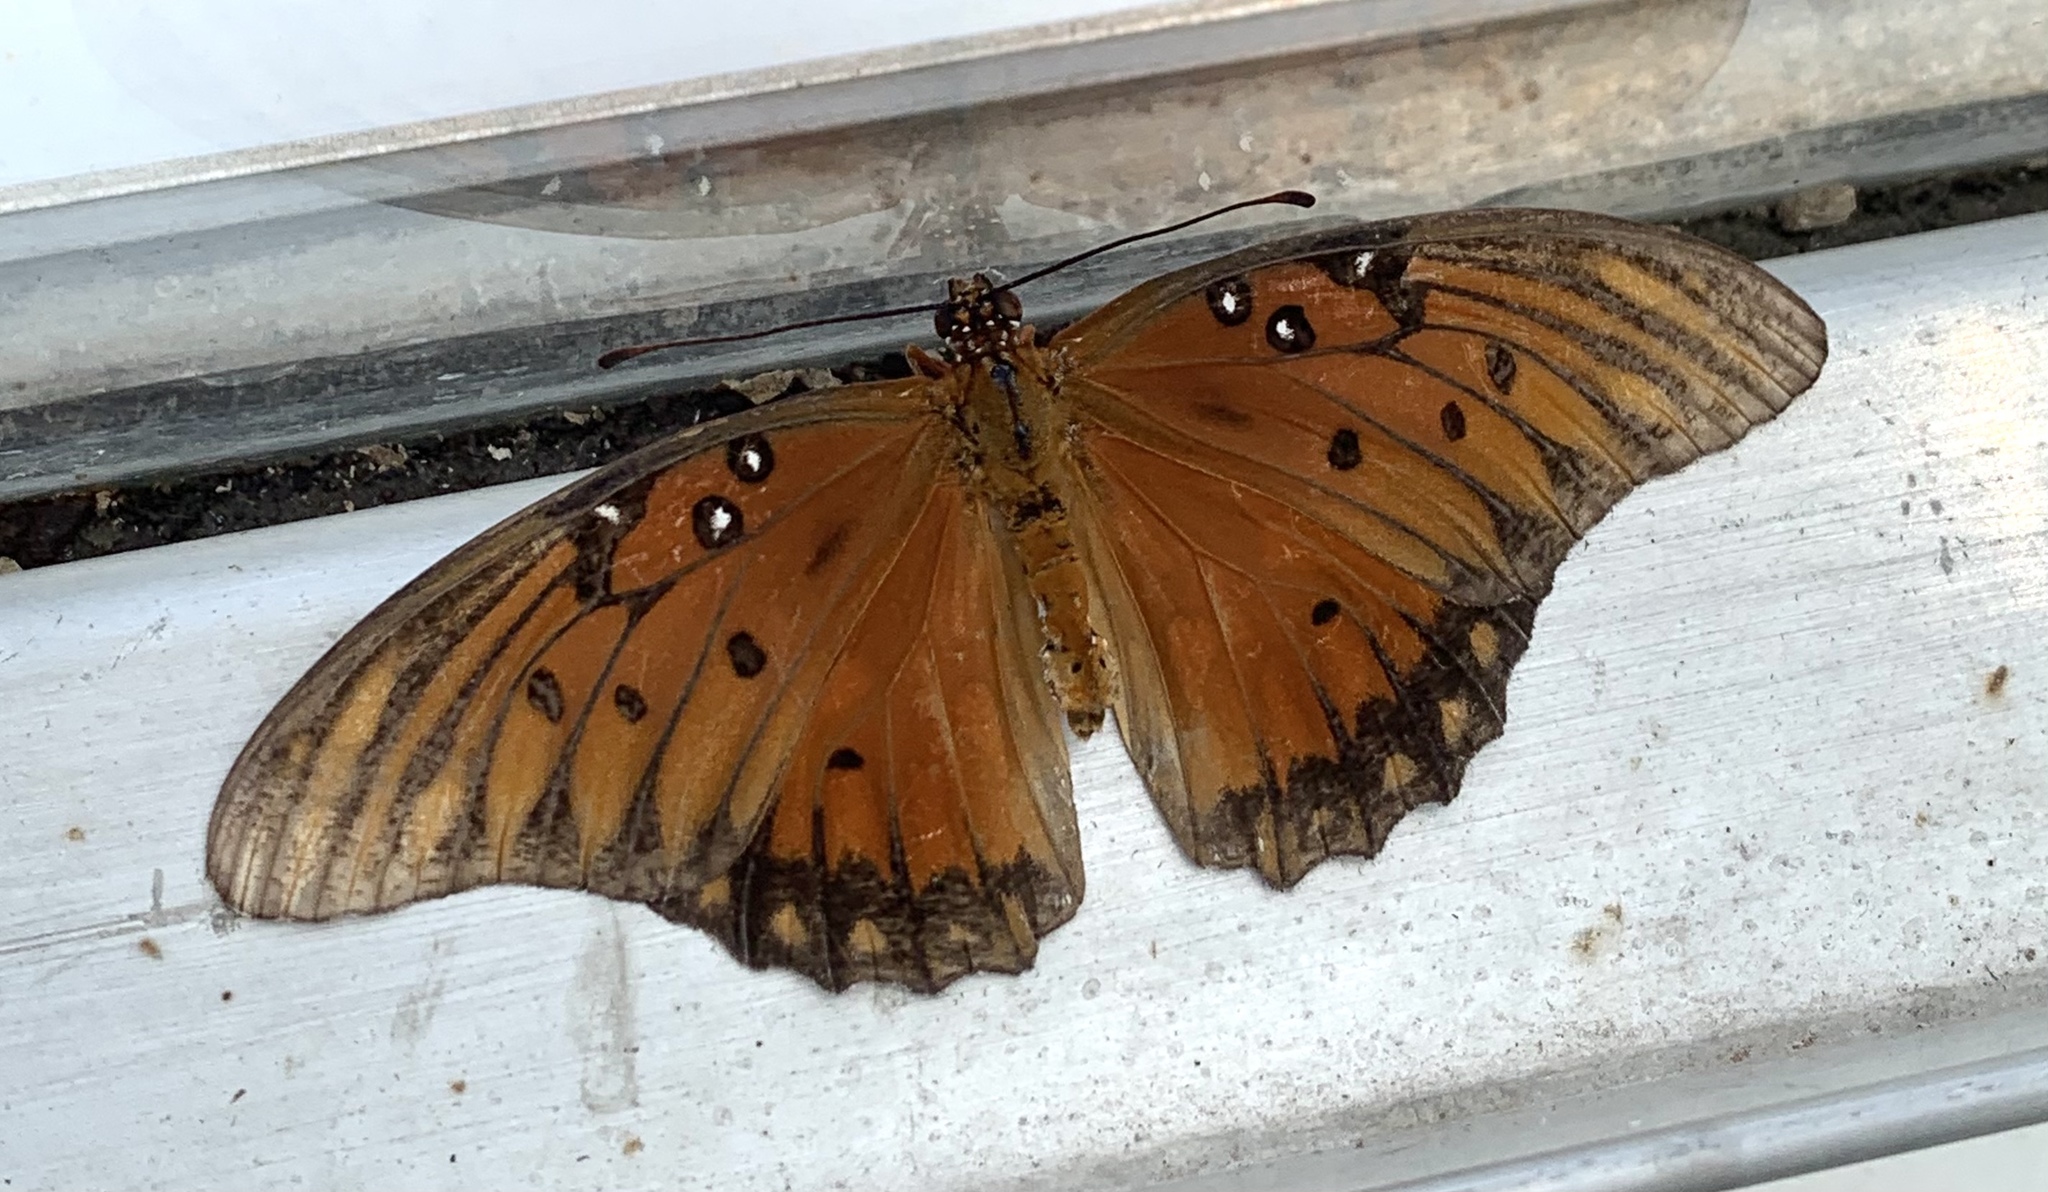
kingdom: Animalia
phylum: Arthropoda
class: Insecta
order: Lepidoptera
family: Nymphalidae
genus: Dione
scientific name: Dione vanillae
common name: Gulf fritillary
